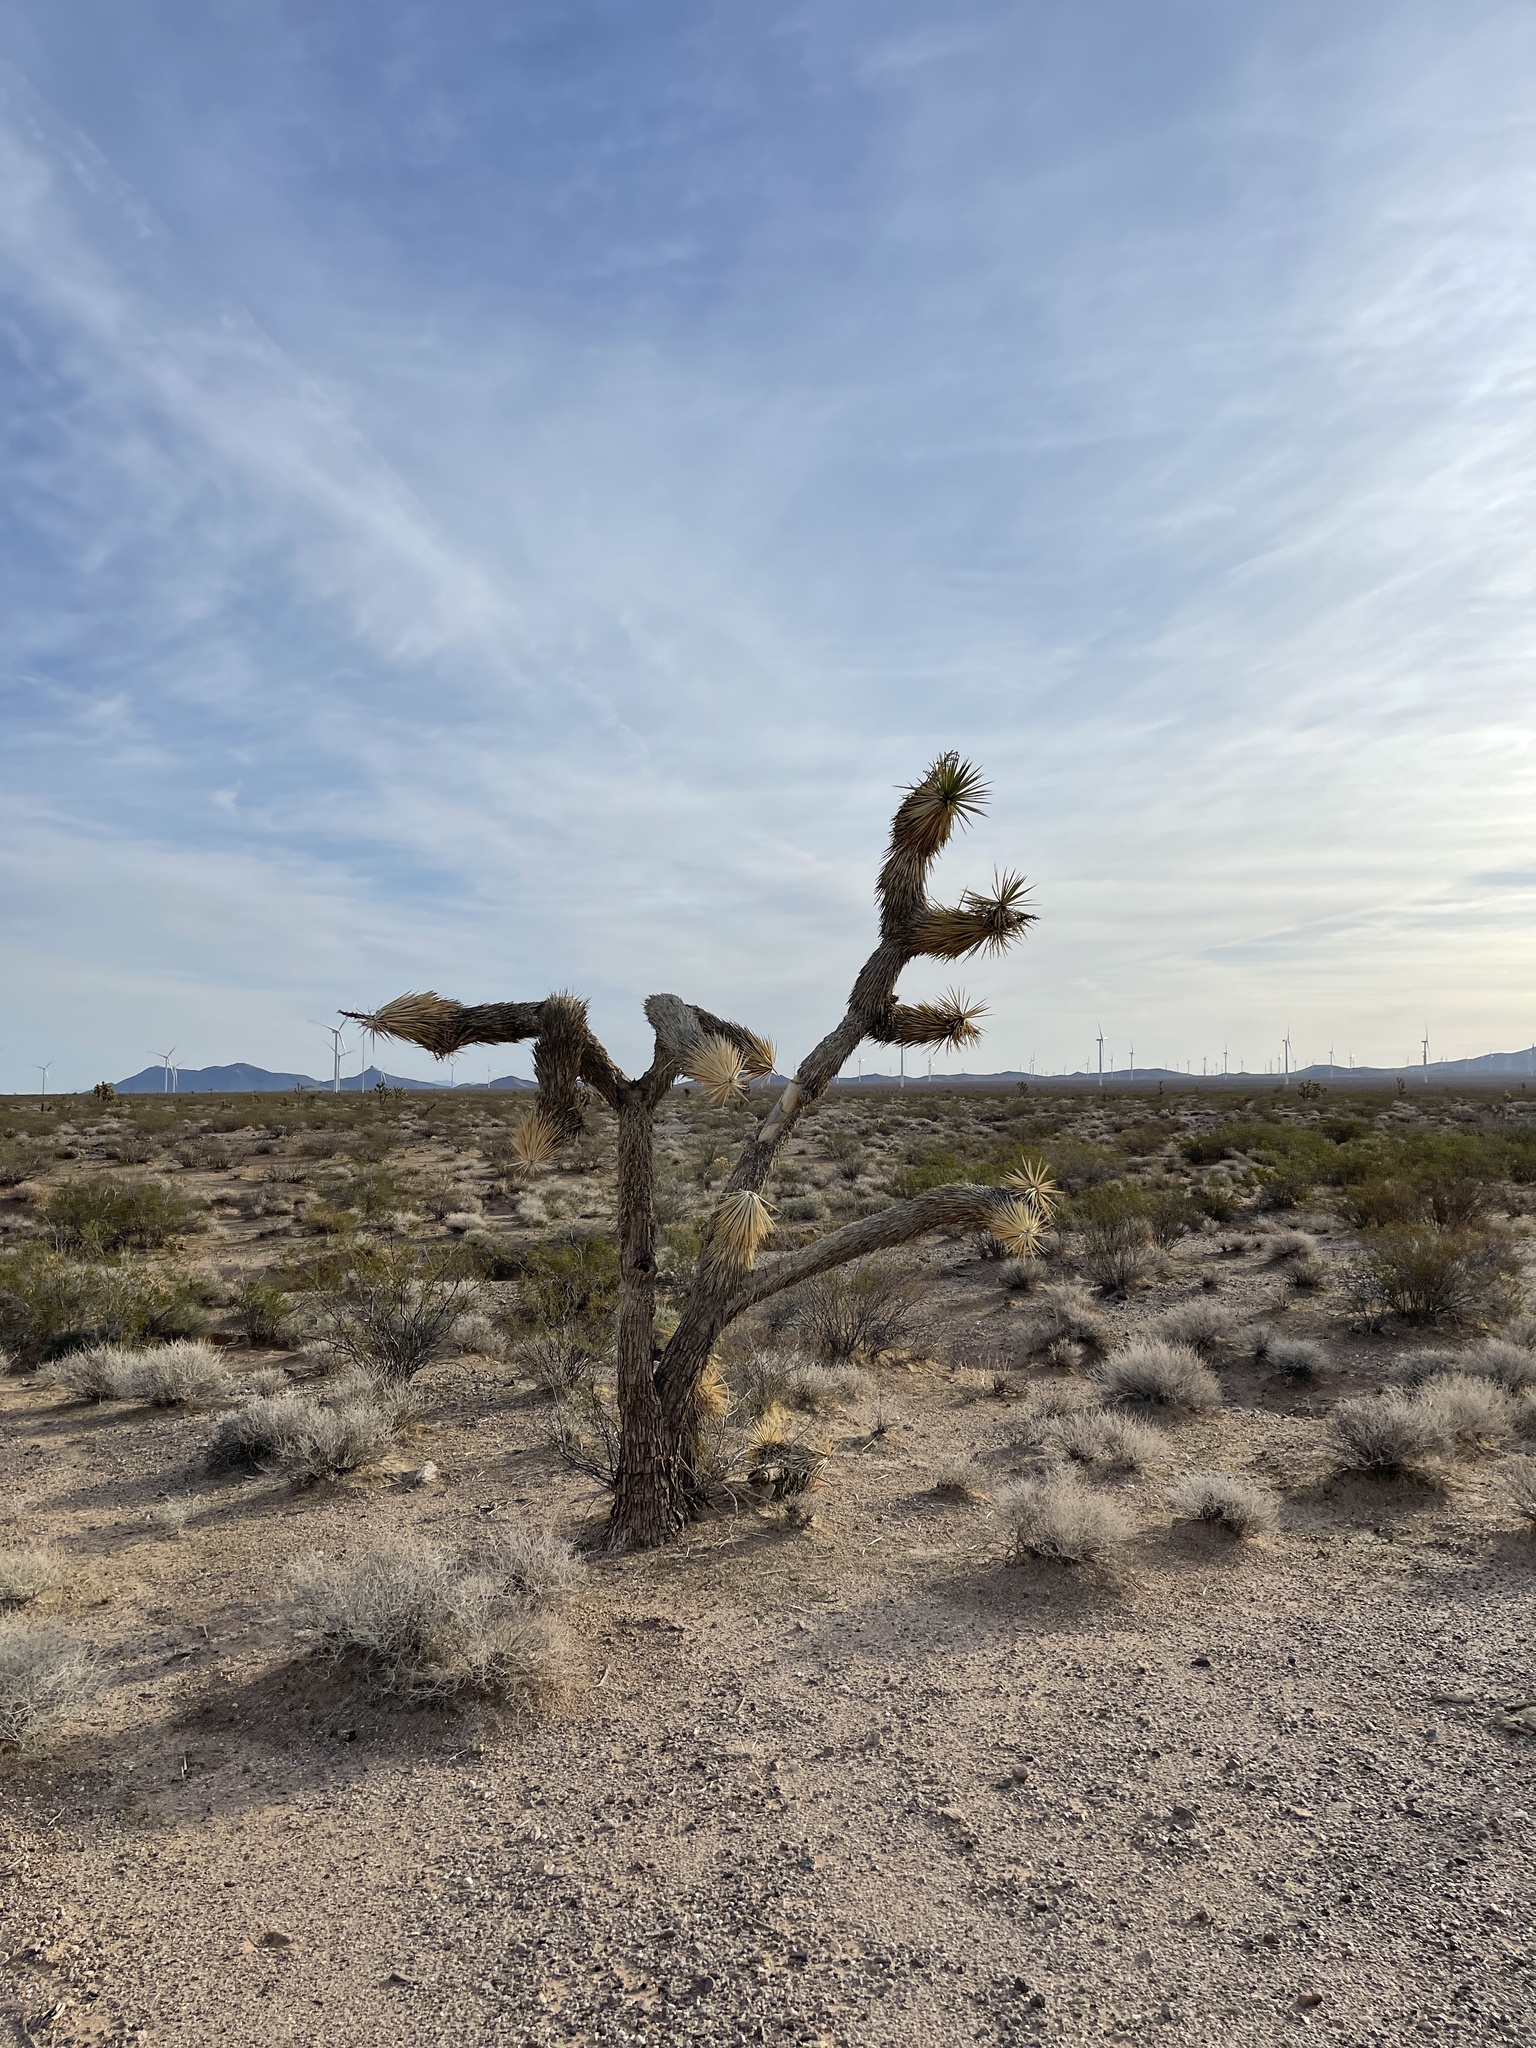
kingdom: Plantae
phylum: Tracheophyta
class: Liliopsida
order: Asparagales
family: Asparagaceae
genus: Yucca
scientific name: Yucca brevifolia
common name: Joshua tree
